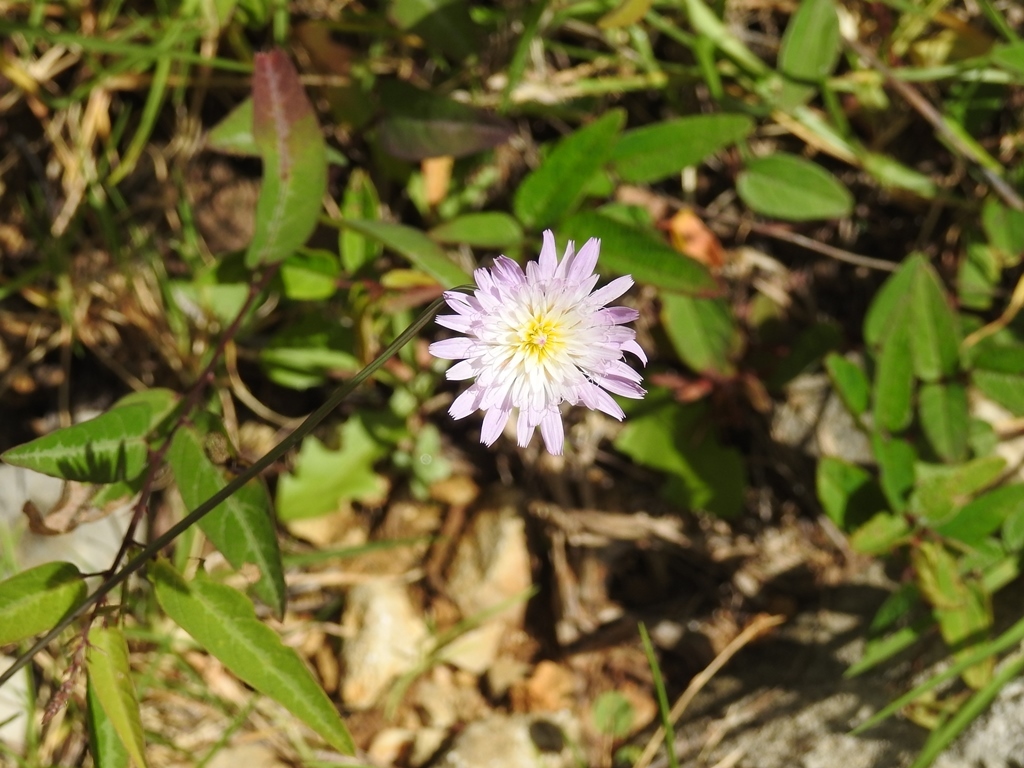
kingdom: Plantae
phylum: Tracheophyta
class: Magnoliopsida
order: Asterales
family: Asteraceae
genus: Pinaropappus
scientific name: Pinaropappus spathulatus
